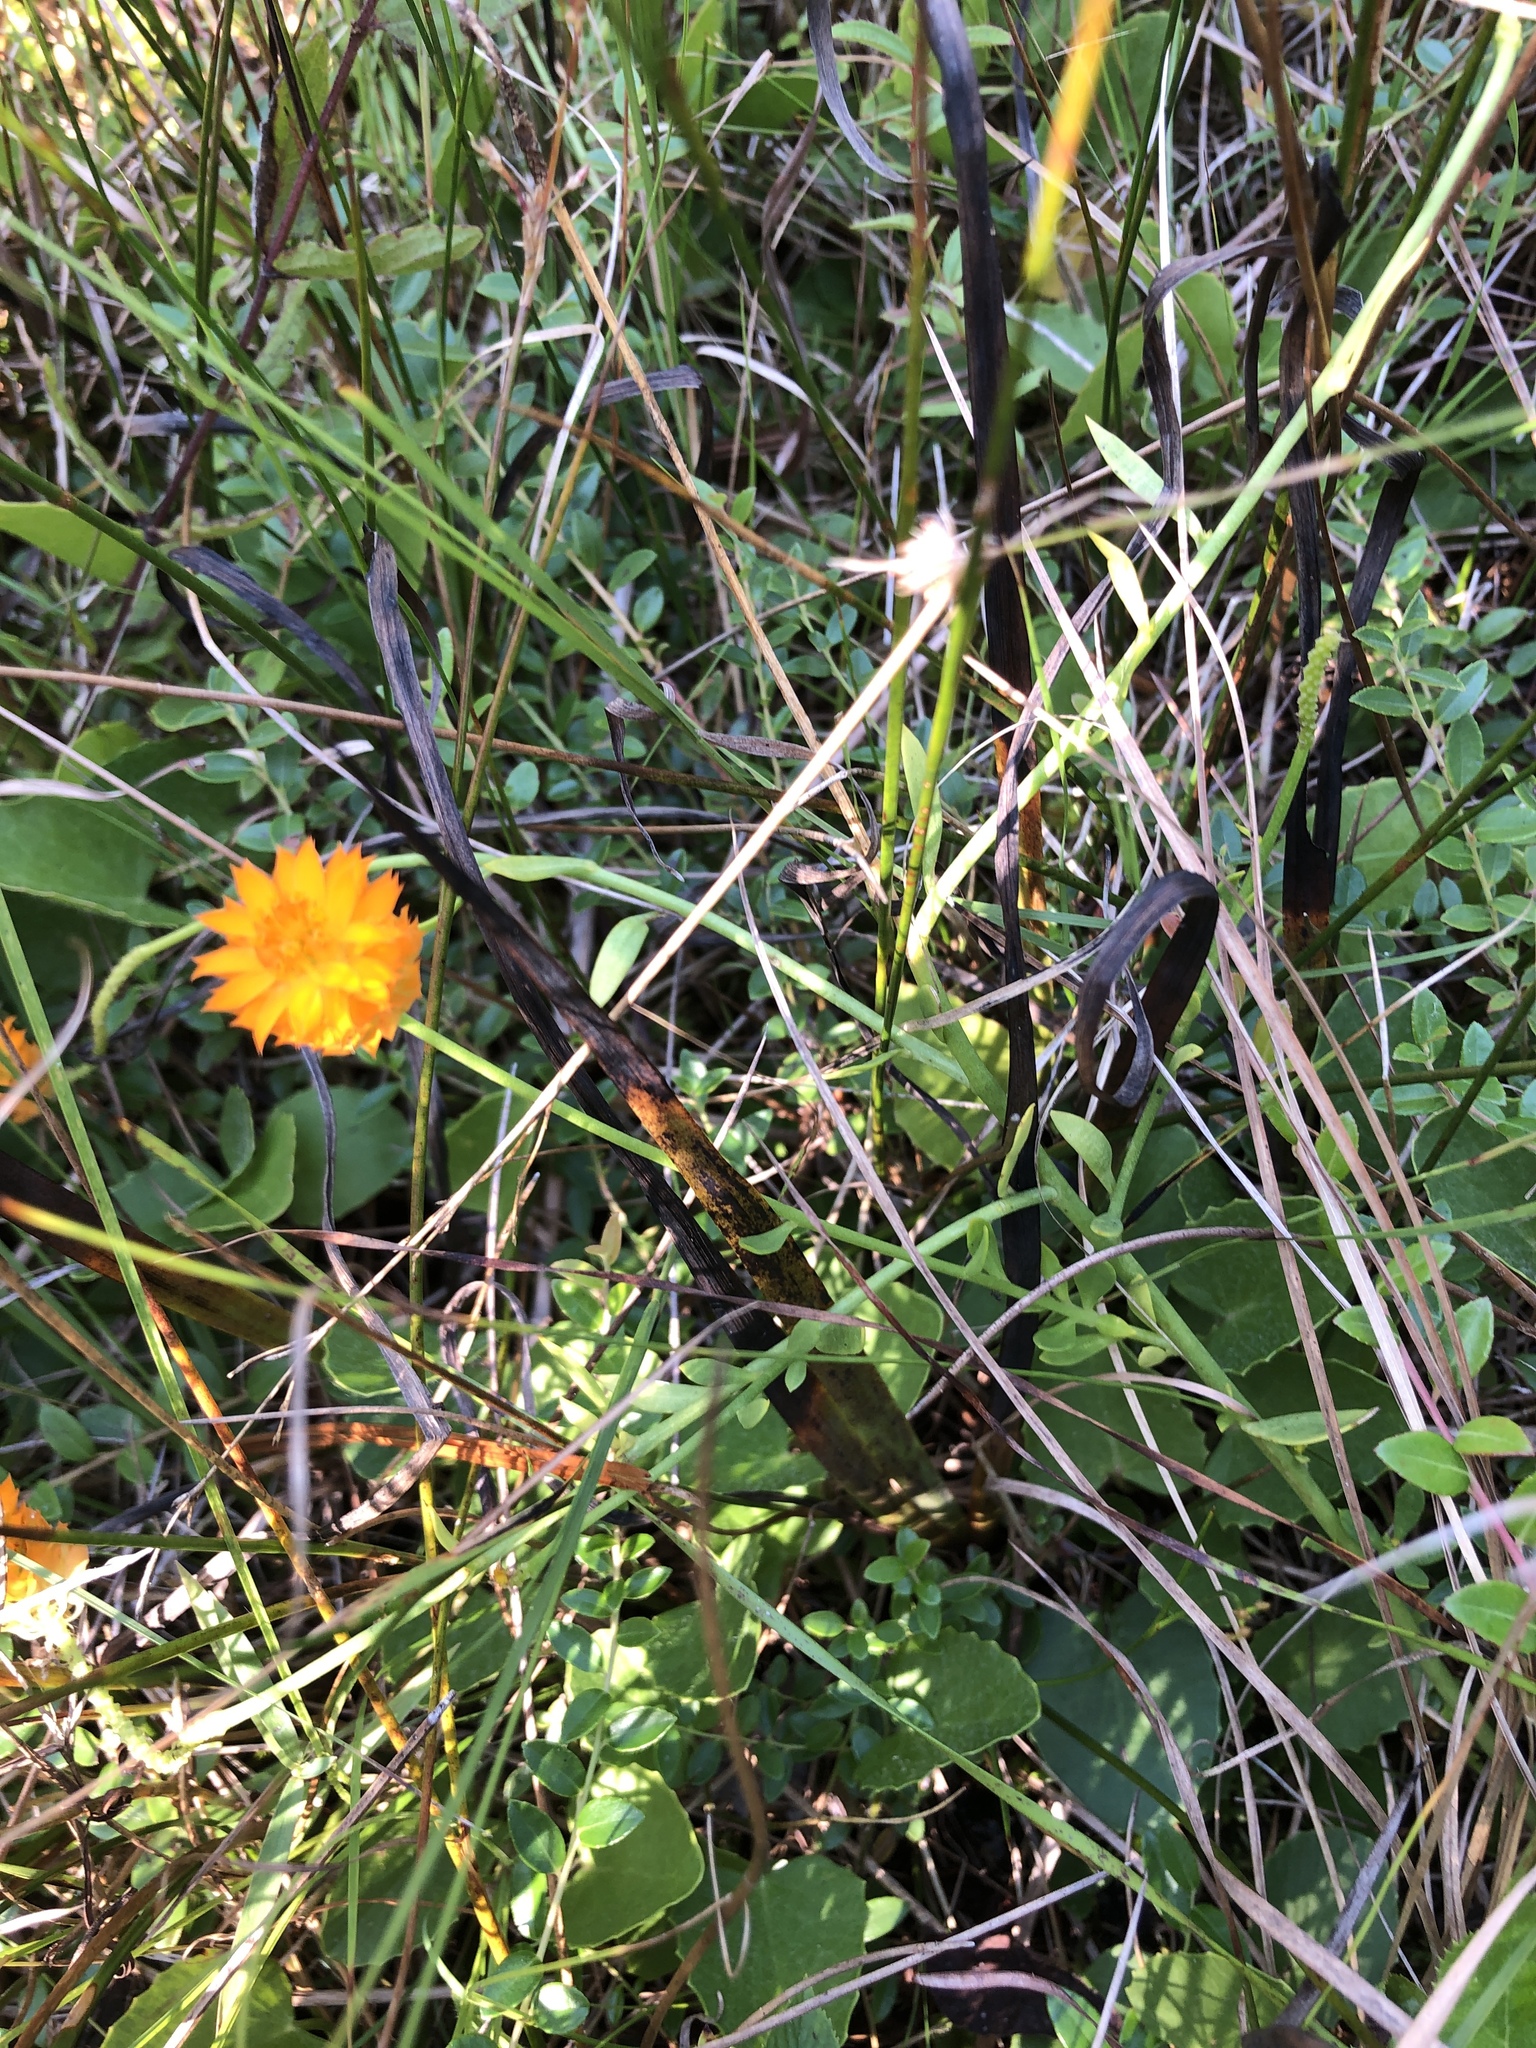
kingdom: Plantae
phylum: Tracheophyta
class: Magnoliopsida
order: Fabales
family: Polygalaceae
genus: Polygala
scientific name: Polygala lutea
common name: Orange milkwort
